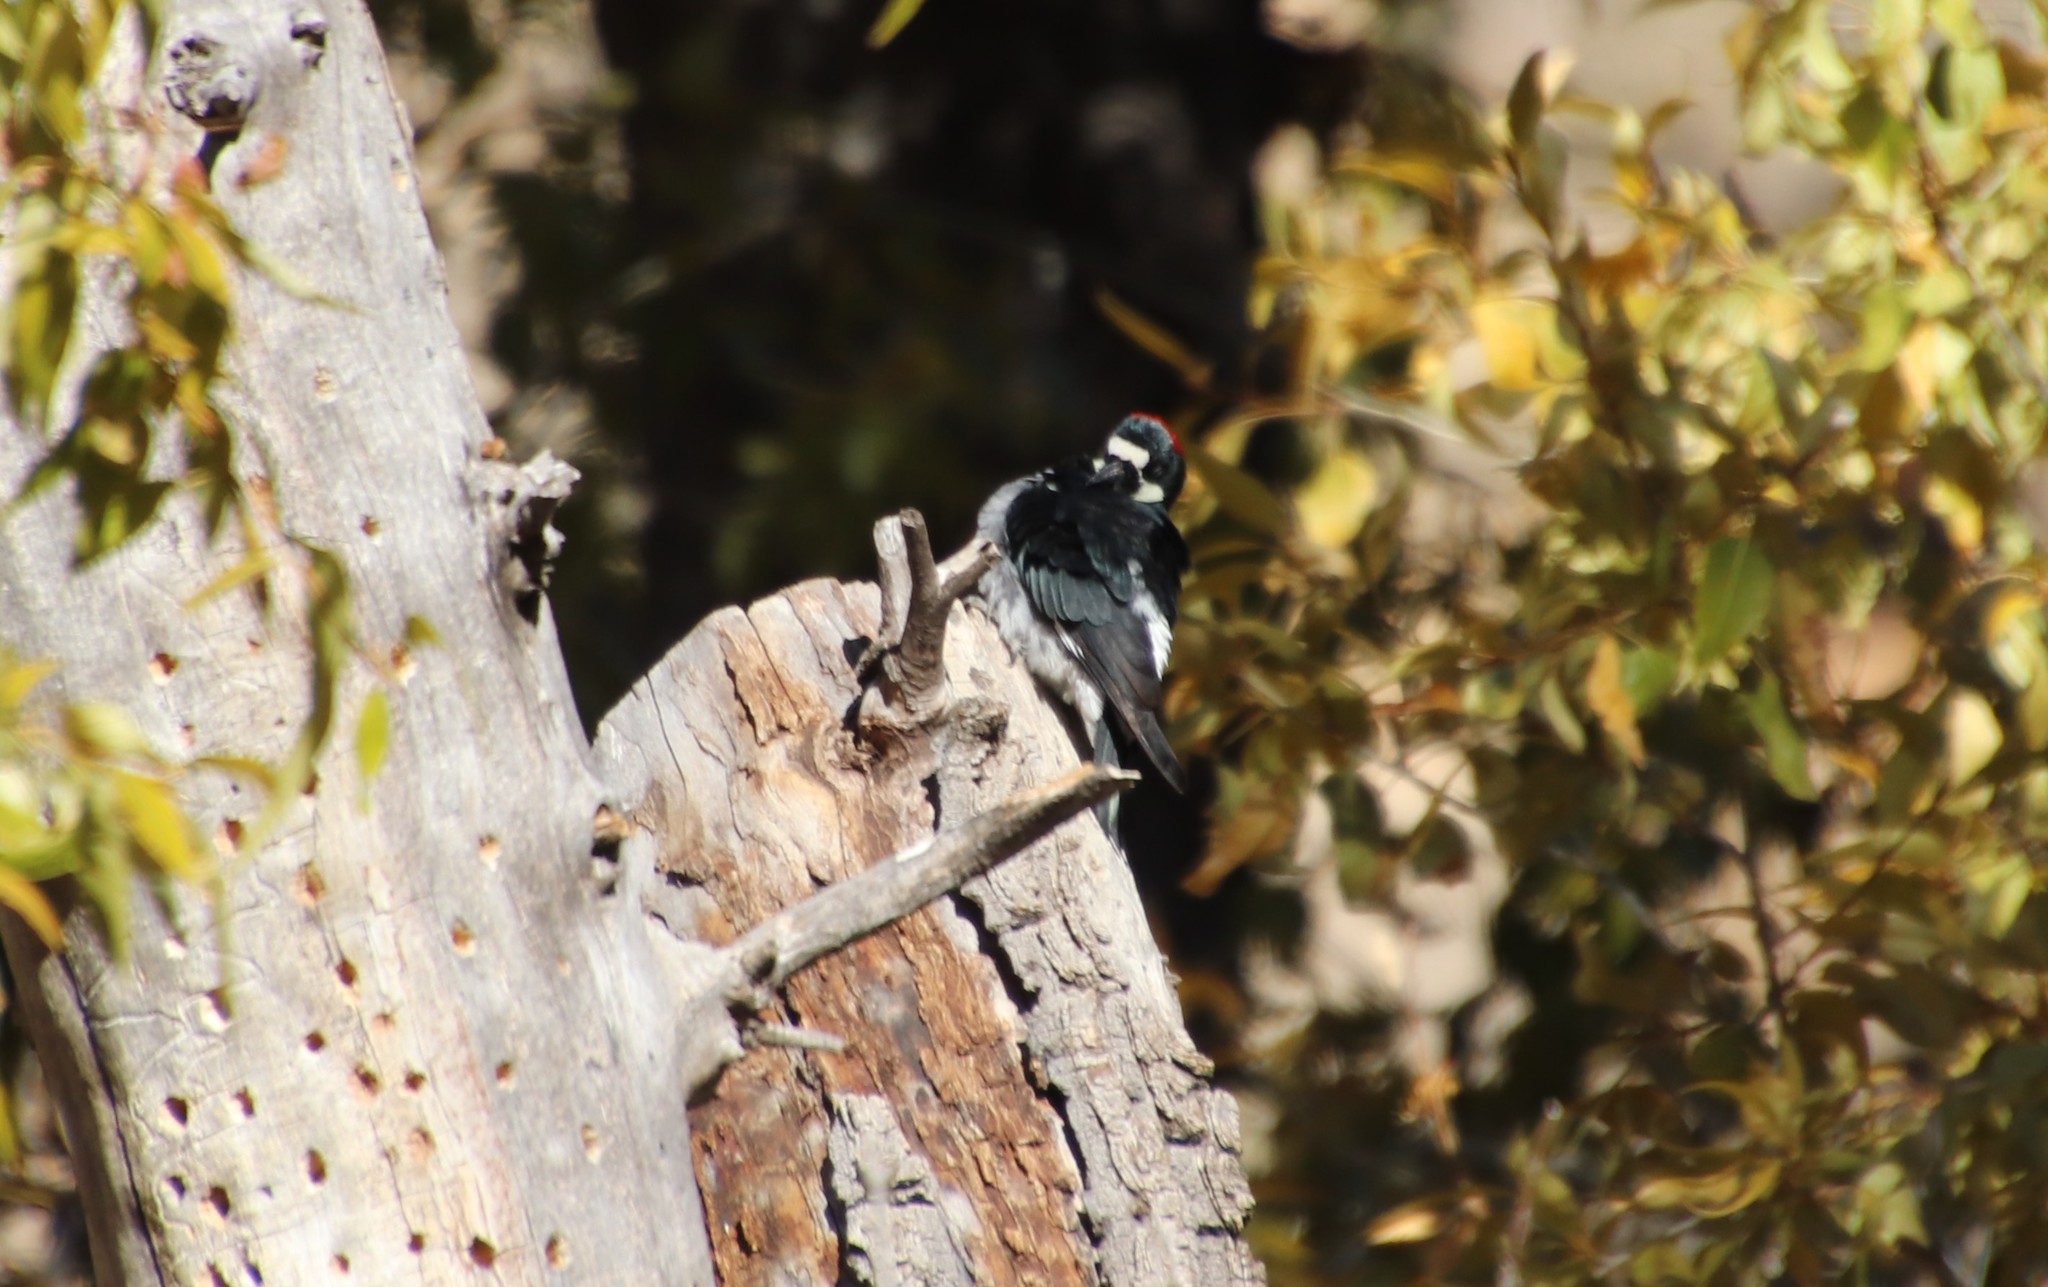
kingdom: Animalia
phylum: Chordata
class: Aves
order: Piciformes
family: Picidae
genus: Melanerpes
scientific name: Melanerpes formicivorus
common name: Acorn woodpecker
